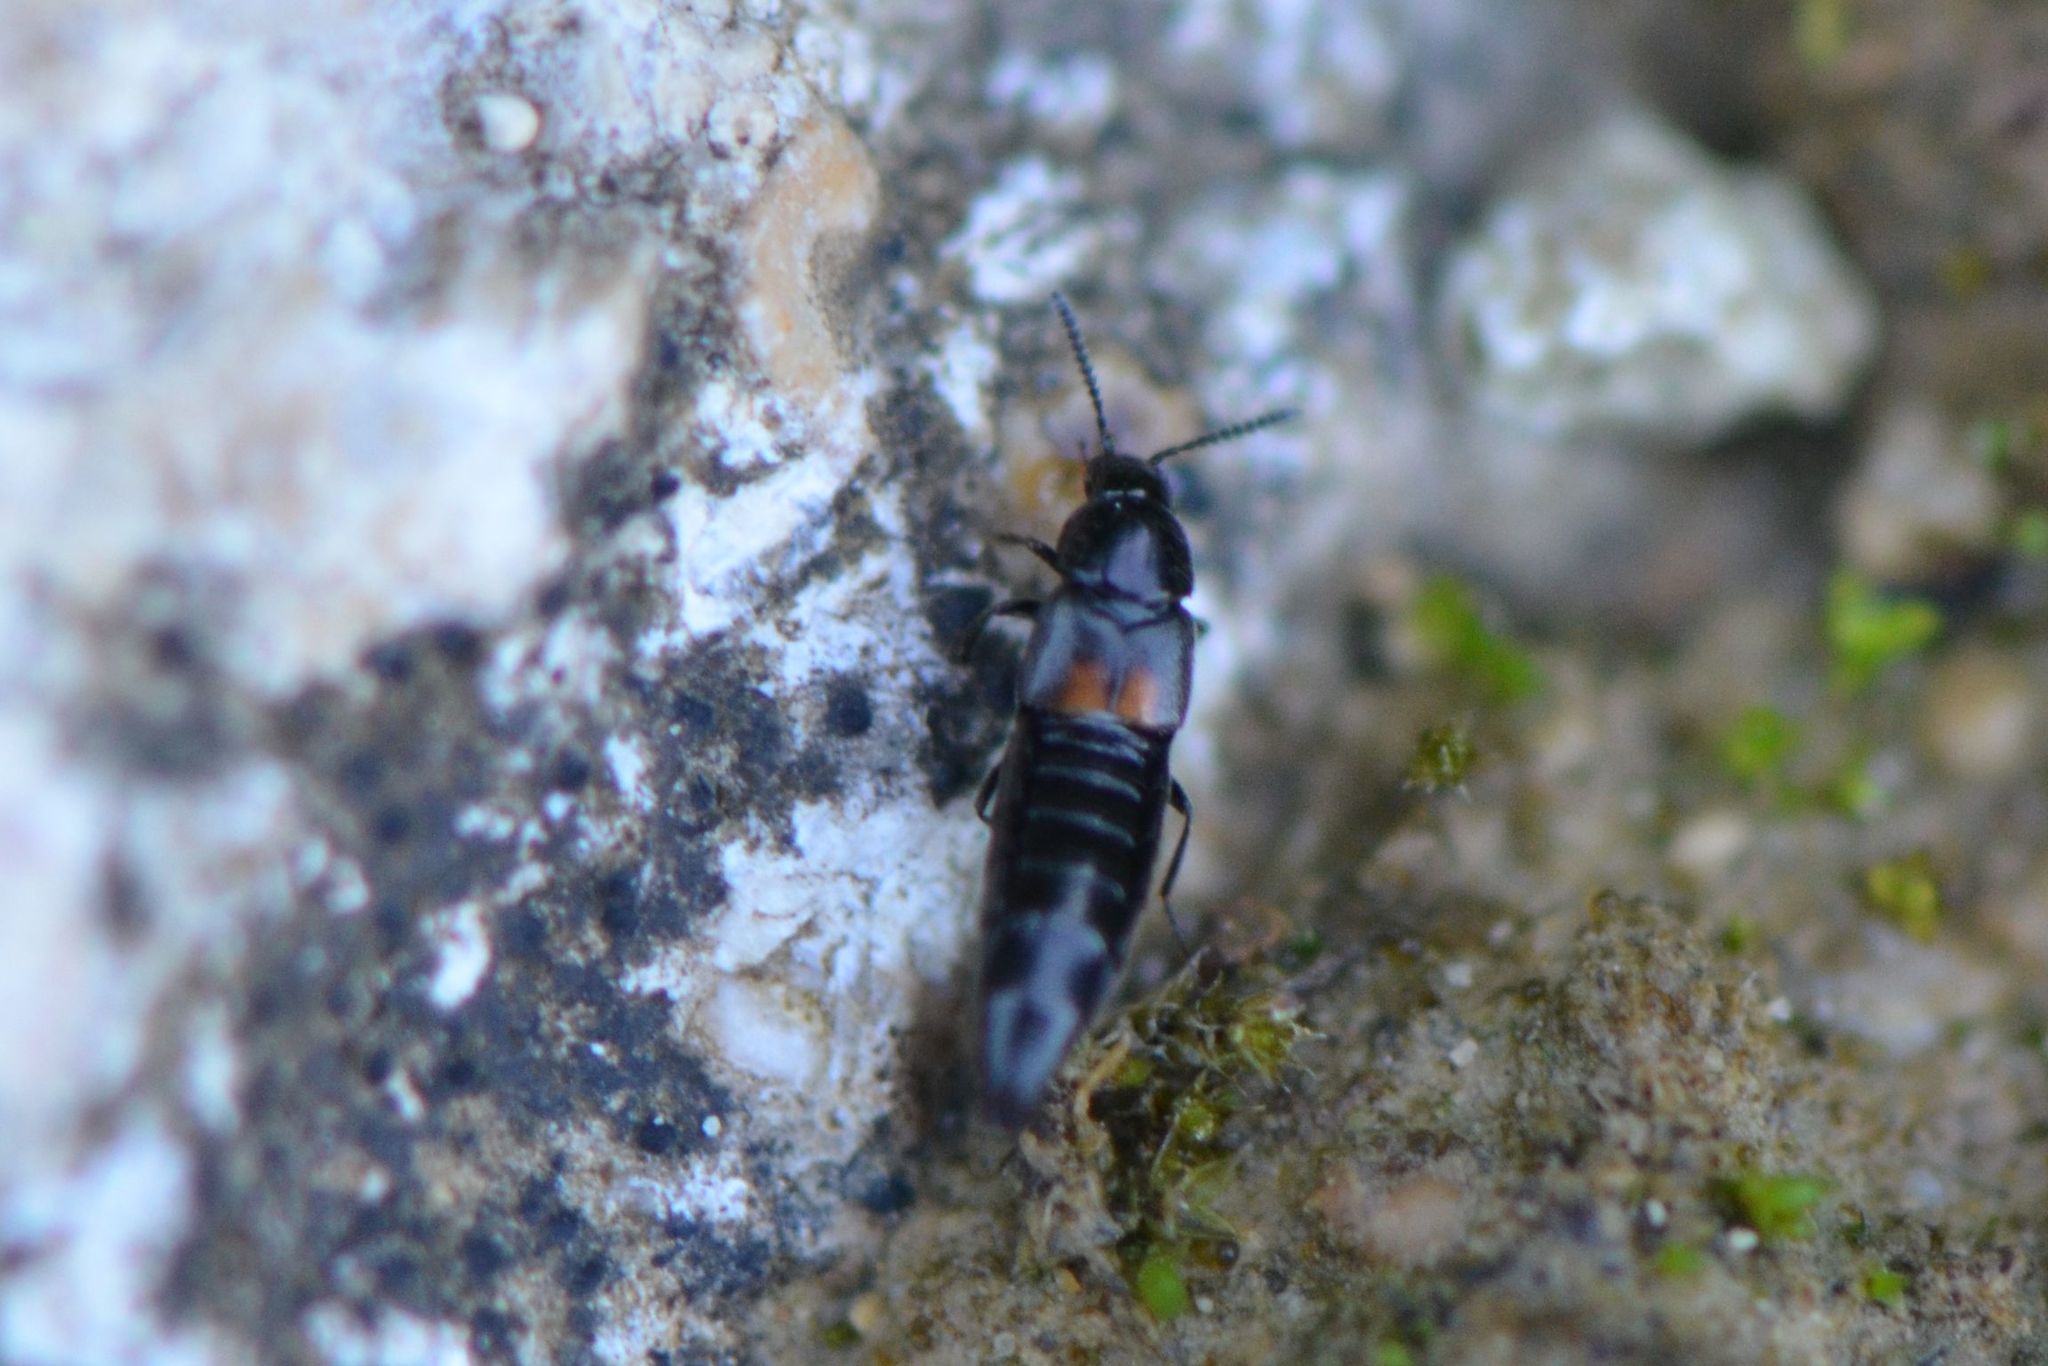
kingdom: Animalia
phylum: Arthropoda
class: Insecta
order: Coleoptera
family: Staphylinidae
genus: Aleochara
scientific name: Aleochara bipustulata
